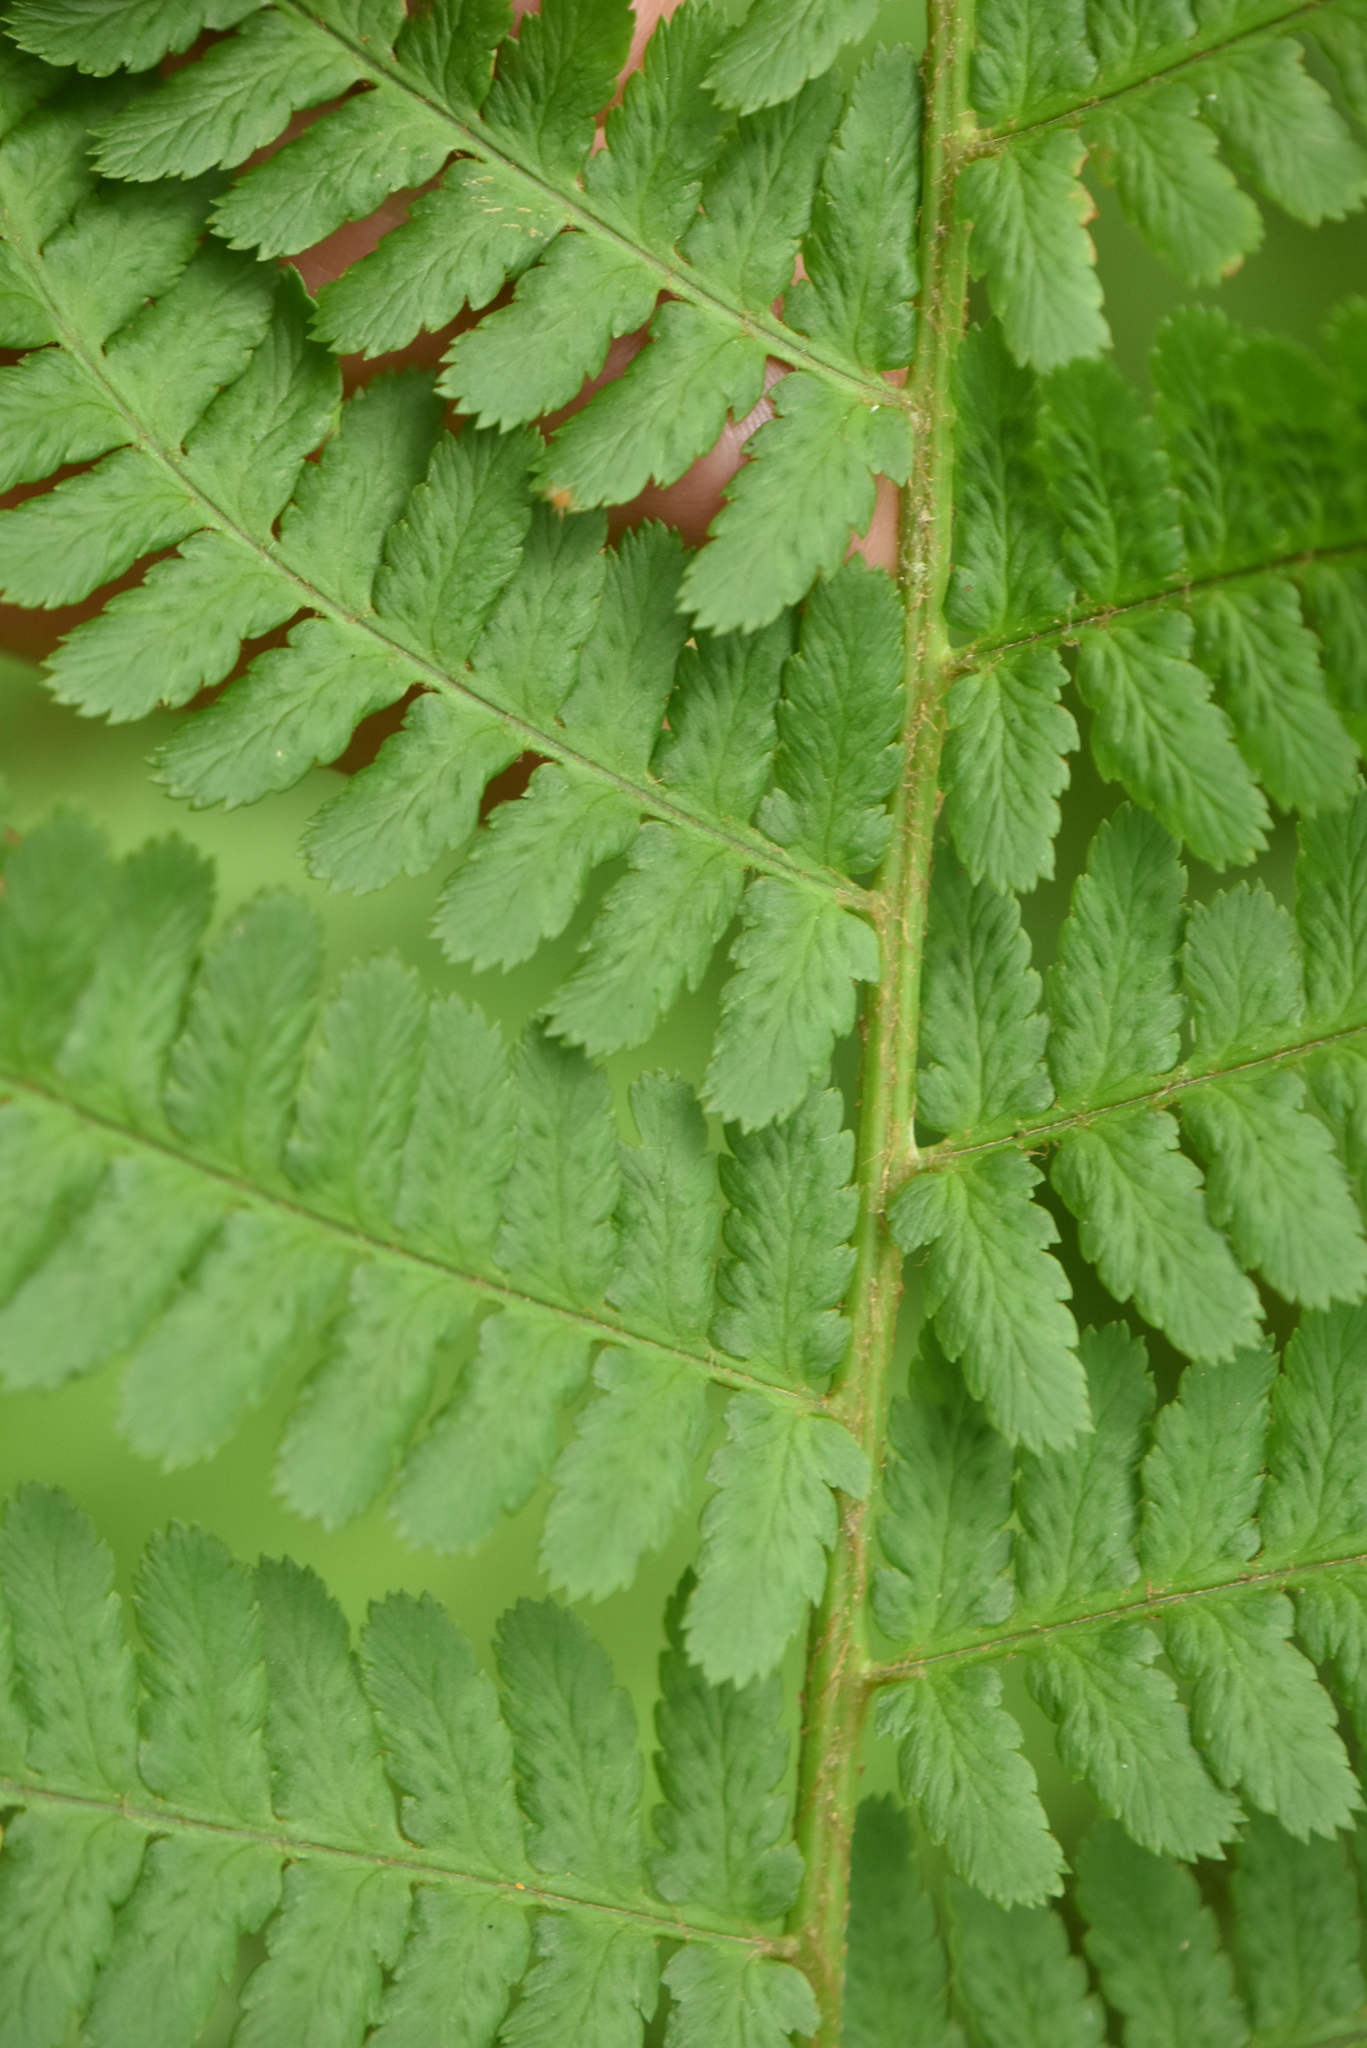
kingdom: Plantae
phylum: Tracheophyta
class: Polypodiopsida
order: Polypodiales
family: Dryopteridaceae
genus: Dryopteris
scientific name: Dryopteris filix-mas
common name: Male fern
